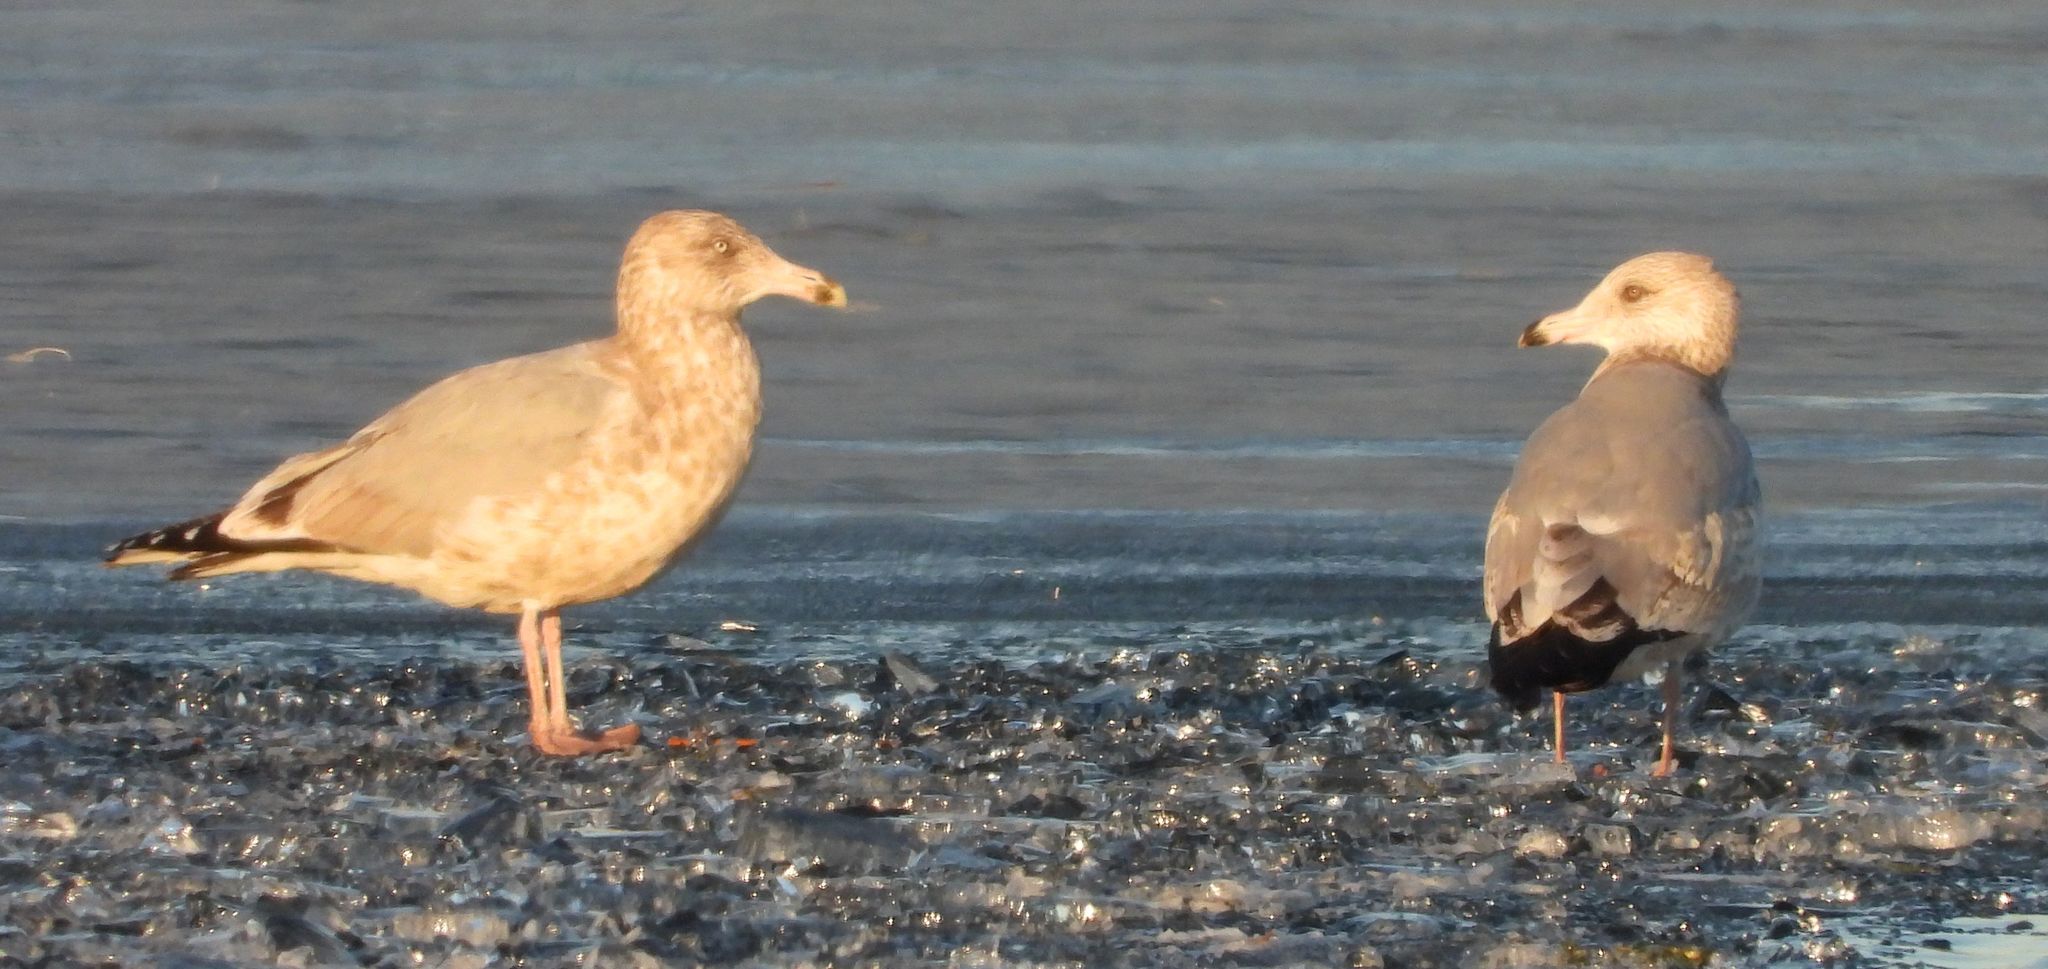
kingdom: Animalia
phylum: Chordata
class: Aves
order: Charadriiformes
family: Laridae
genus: Larus
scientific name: Larus argentatus
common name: Herring gull
